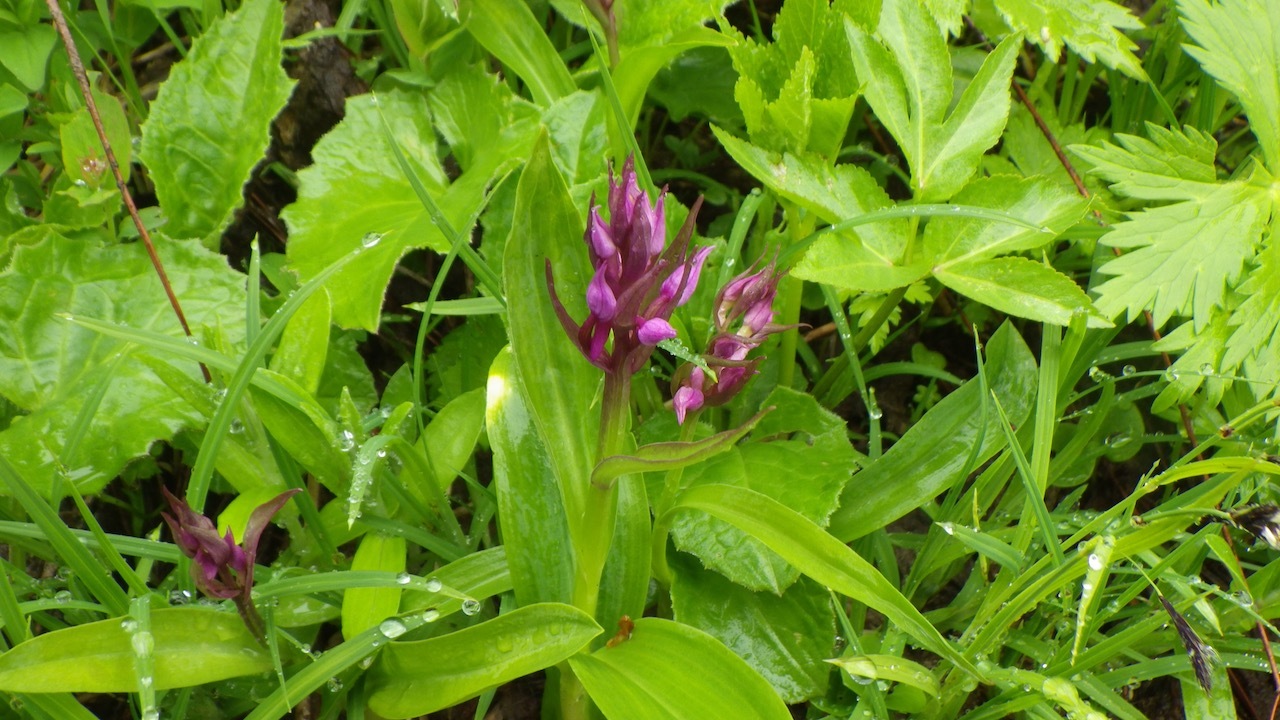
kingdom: Plantae
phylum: Tracheophyta
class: Liliopsida
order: Asparagales
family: Orchidaceae
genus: Dactylorhiza
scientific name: Dactylorhiza aristata
